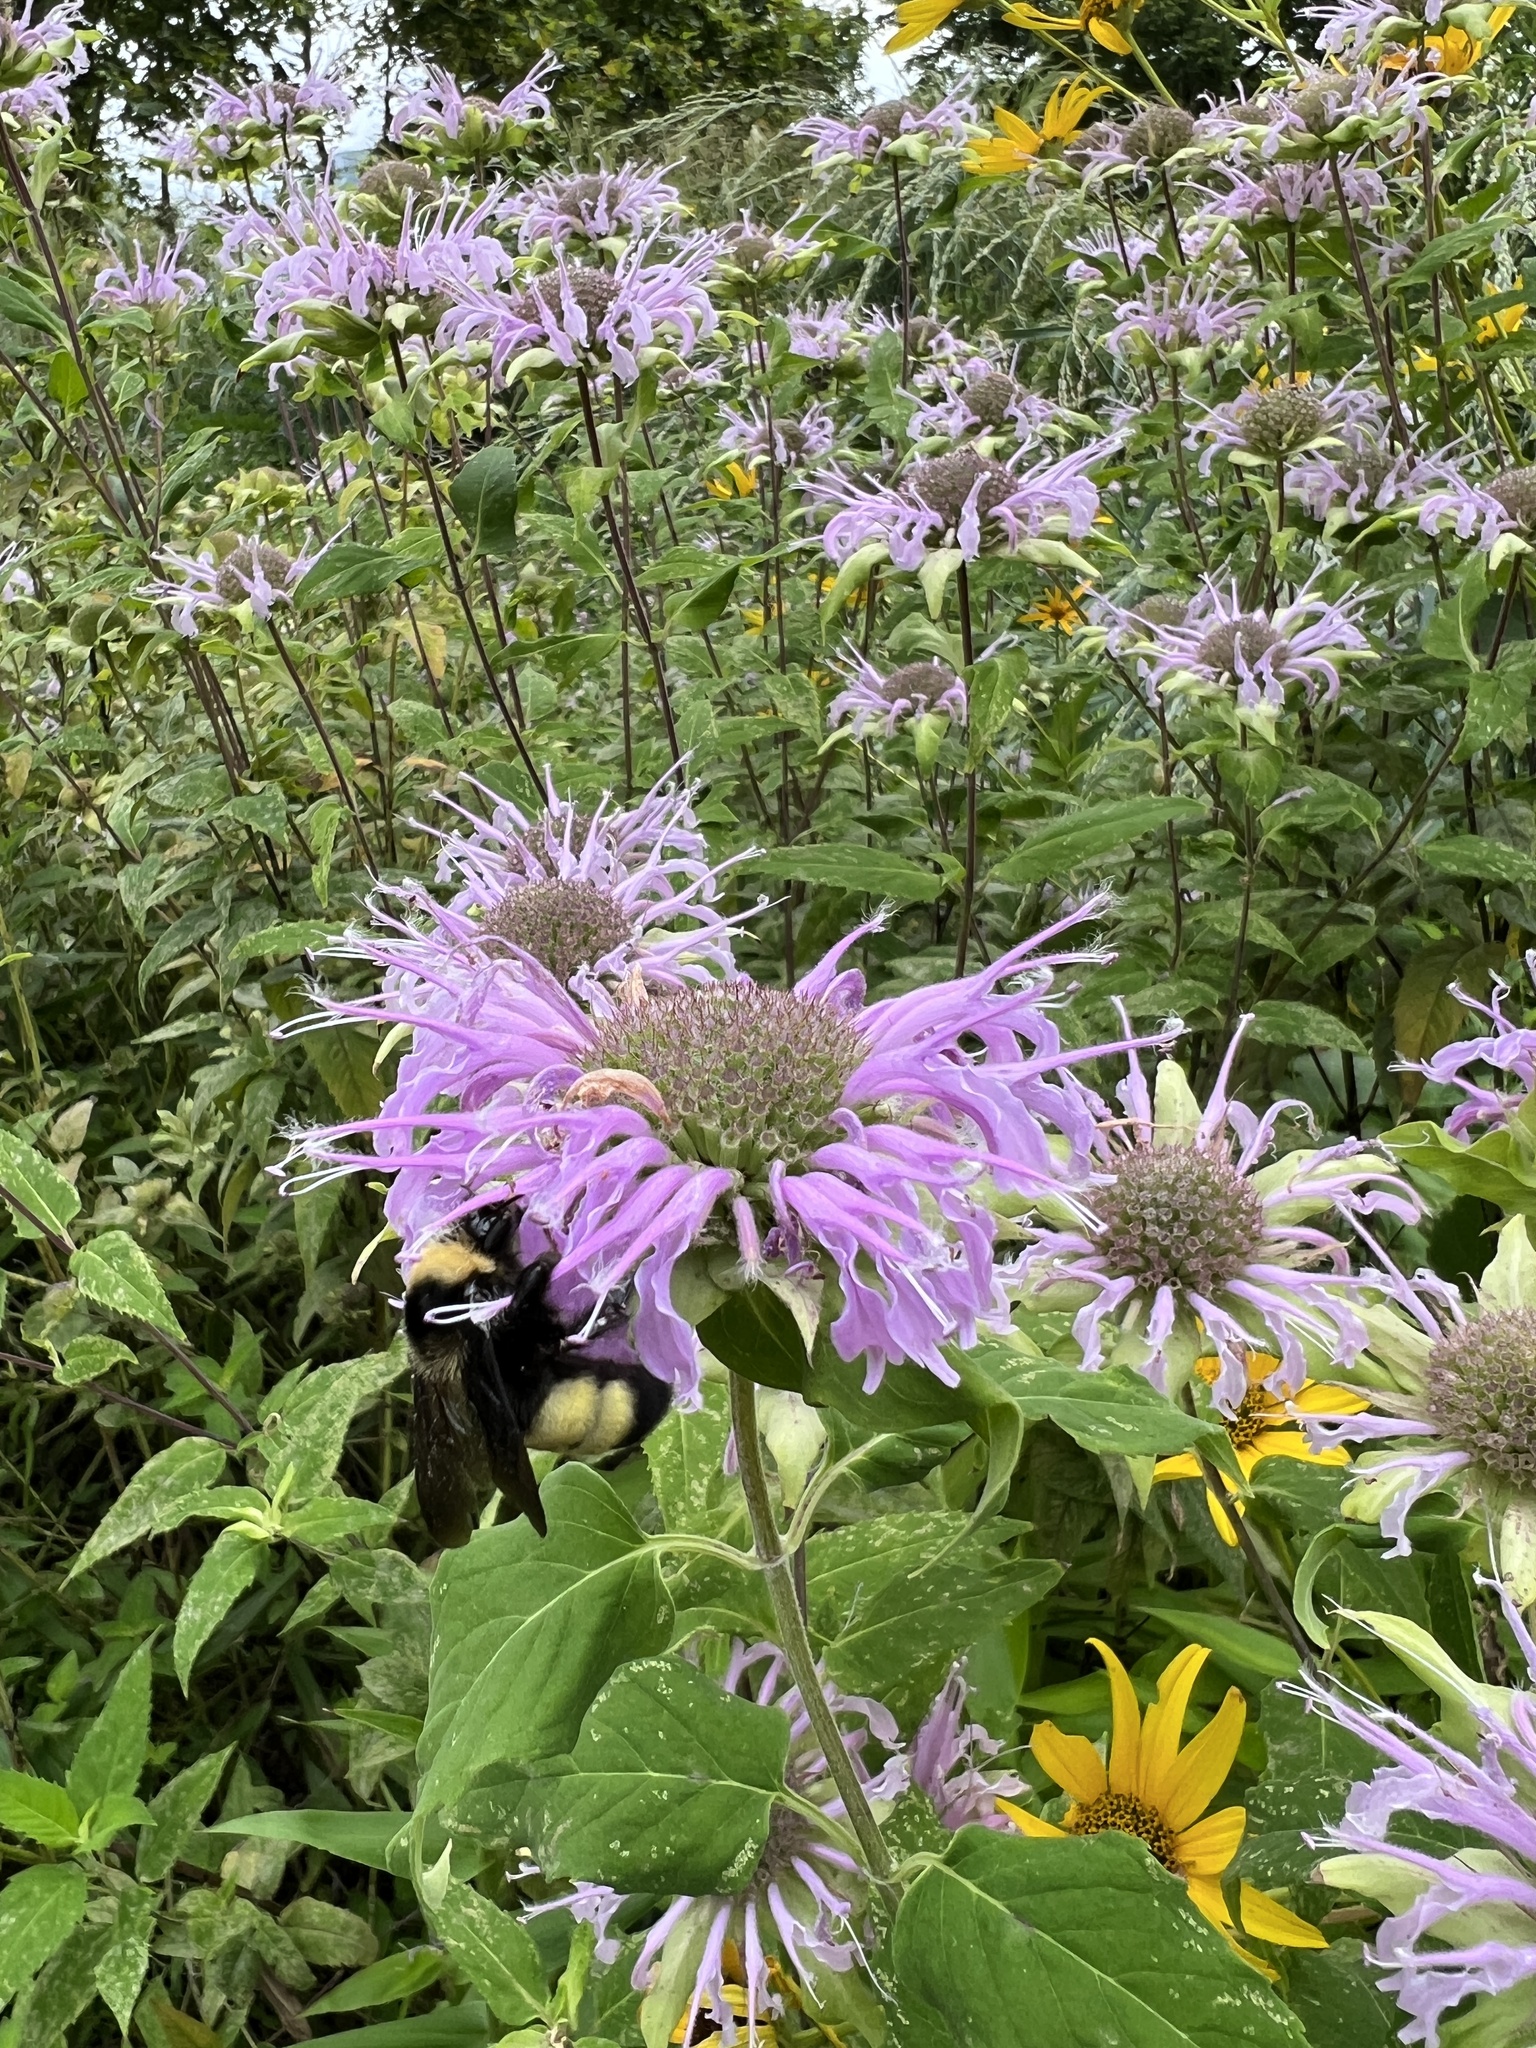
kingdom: Animalia
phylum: Arthropoda
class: Insecta
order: Hymenoptera
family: Apidae
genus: Bombus
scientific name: Bombus auricomus
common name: Black and gold bumble bee
